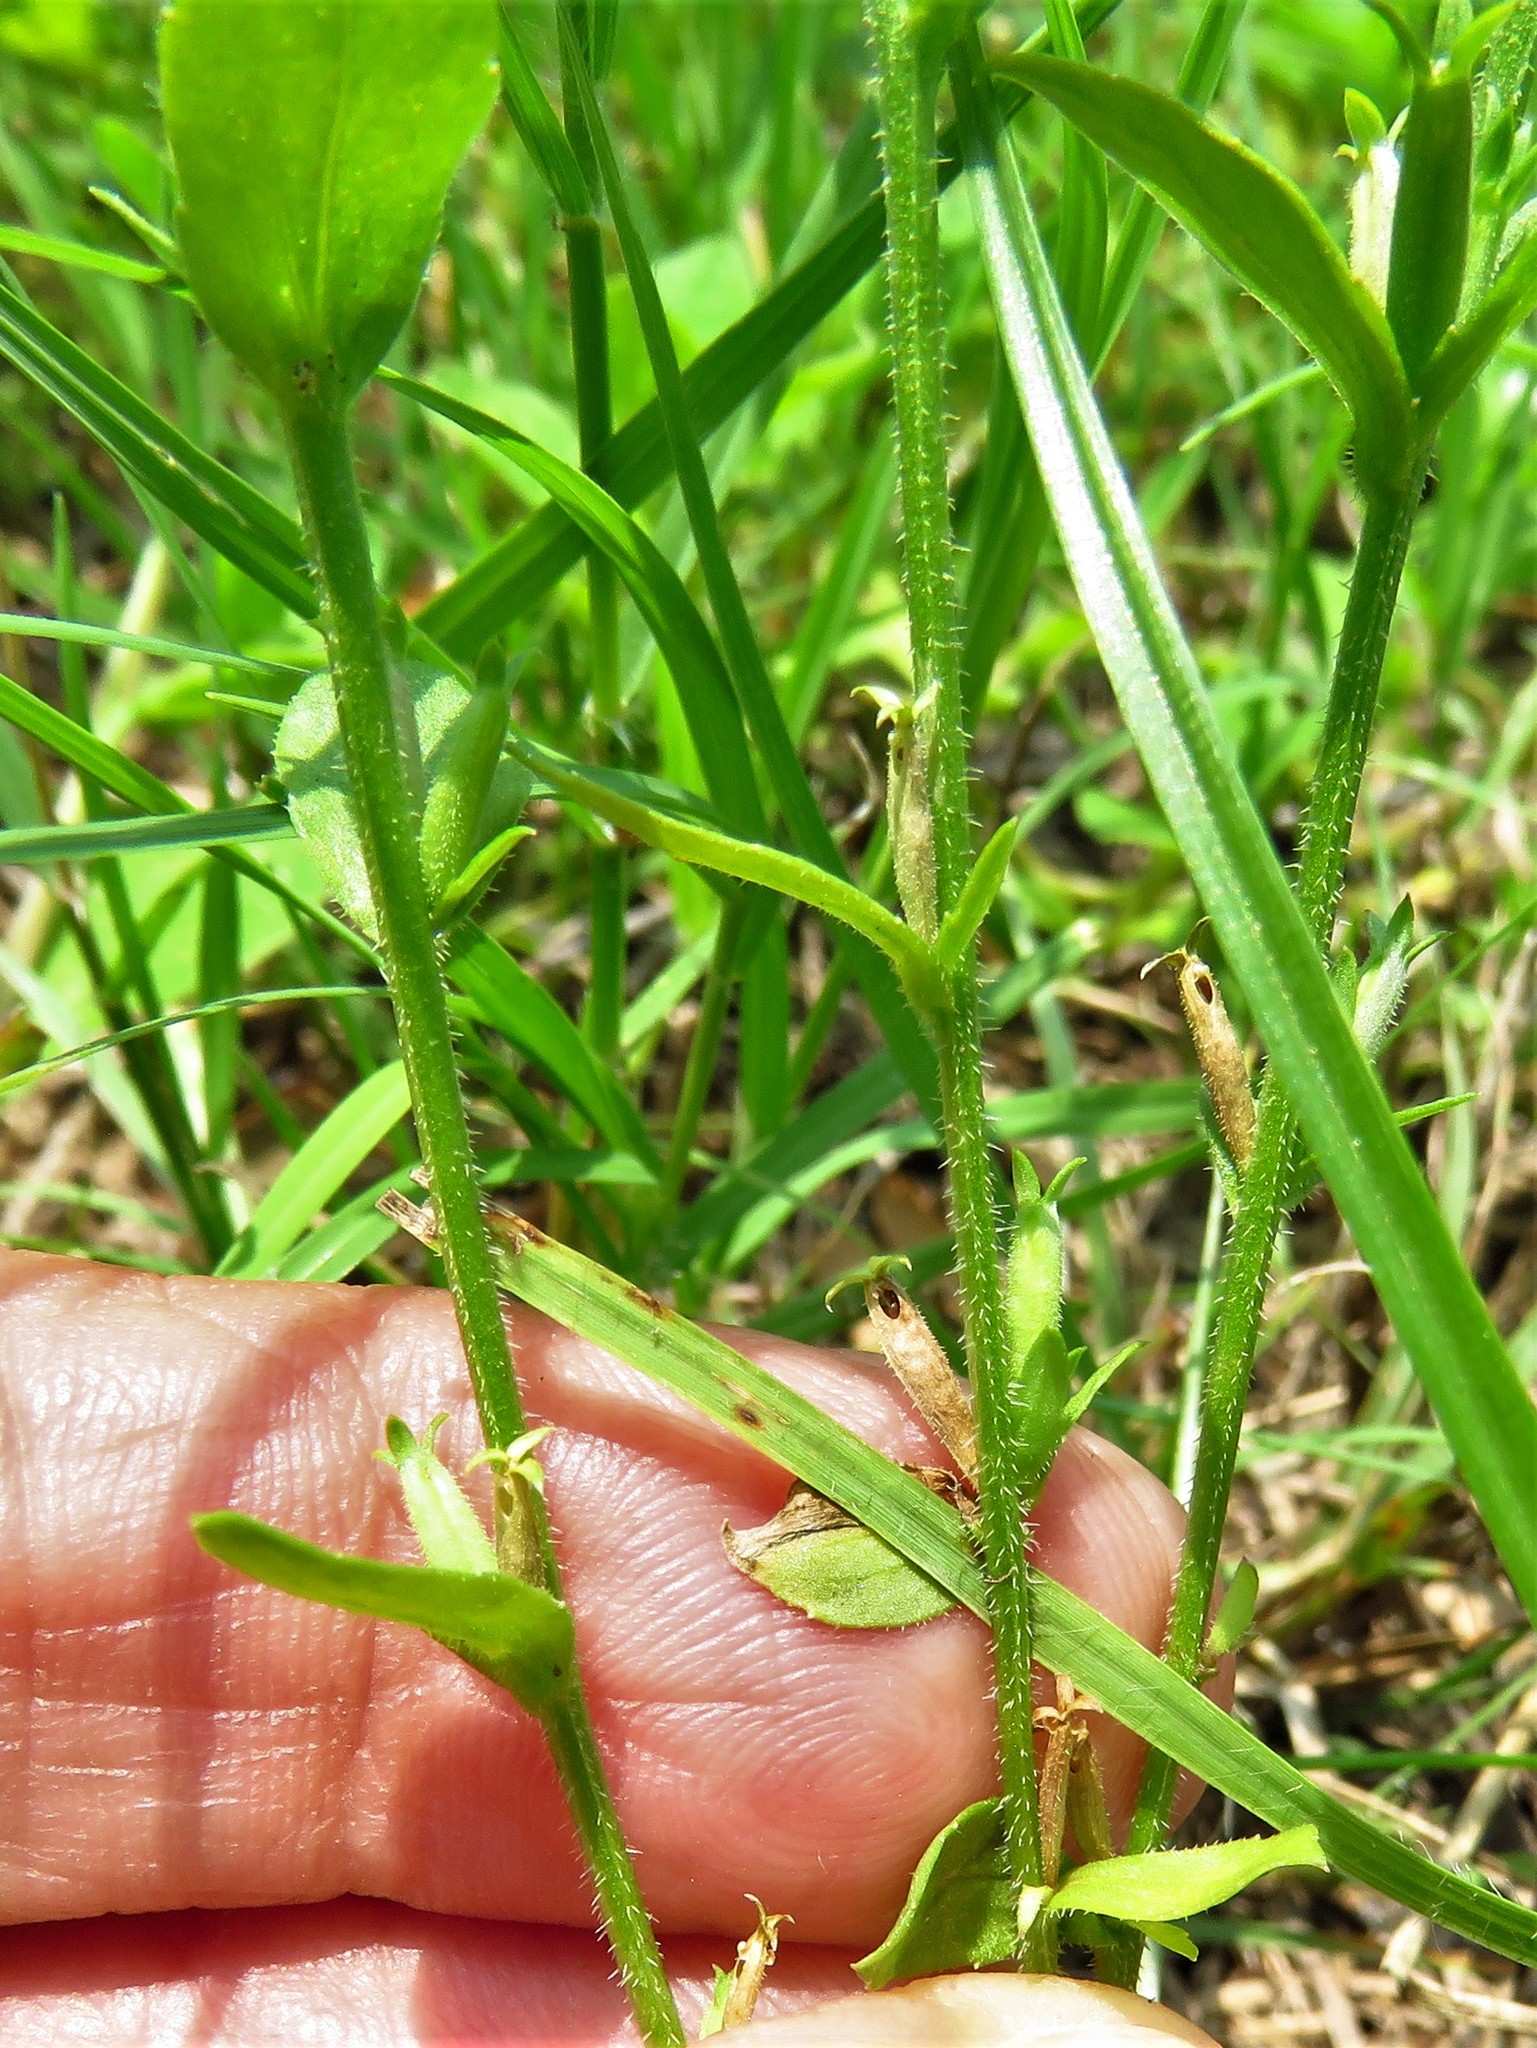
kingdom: Plantae
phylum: Tracheophyta
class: Magnoliopsida
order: Asterales
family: Campanulaceae
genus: Triodanis
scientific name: Triodanis biflora
